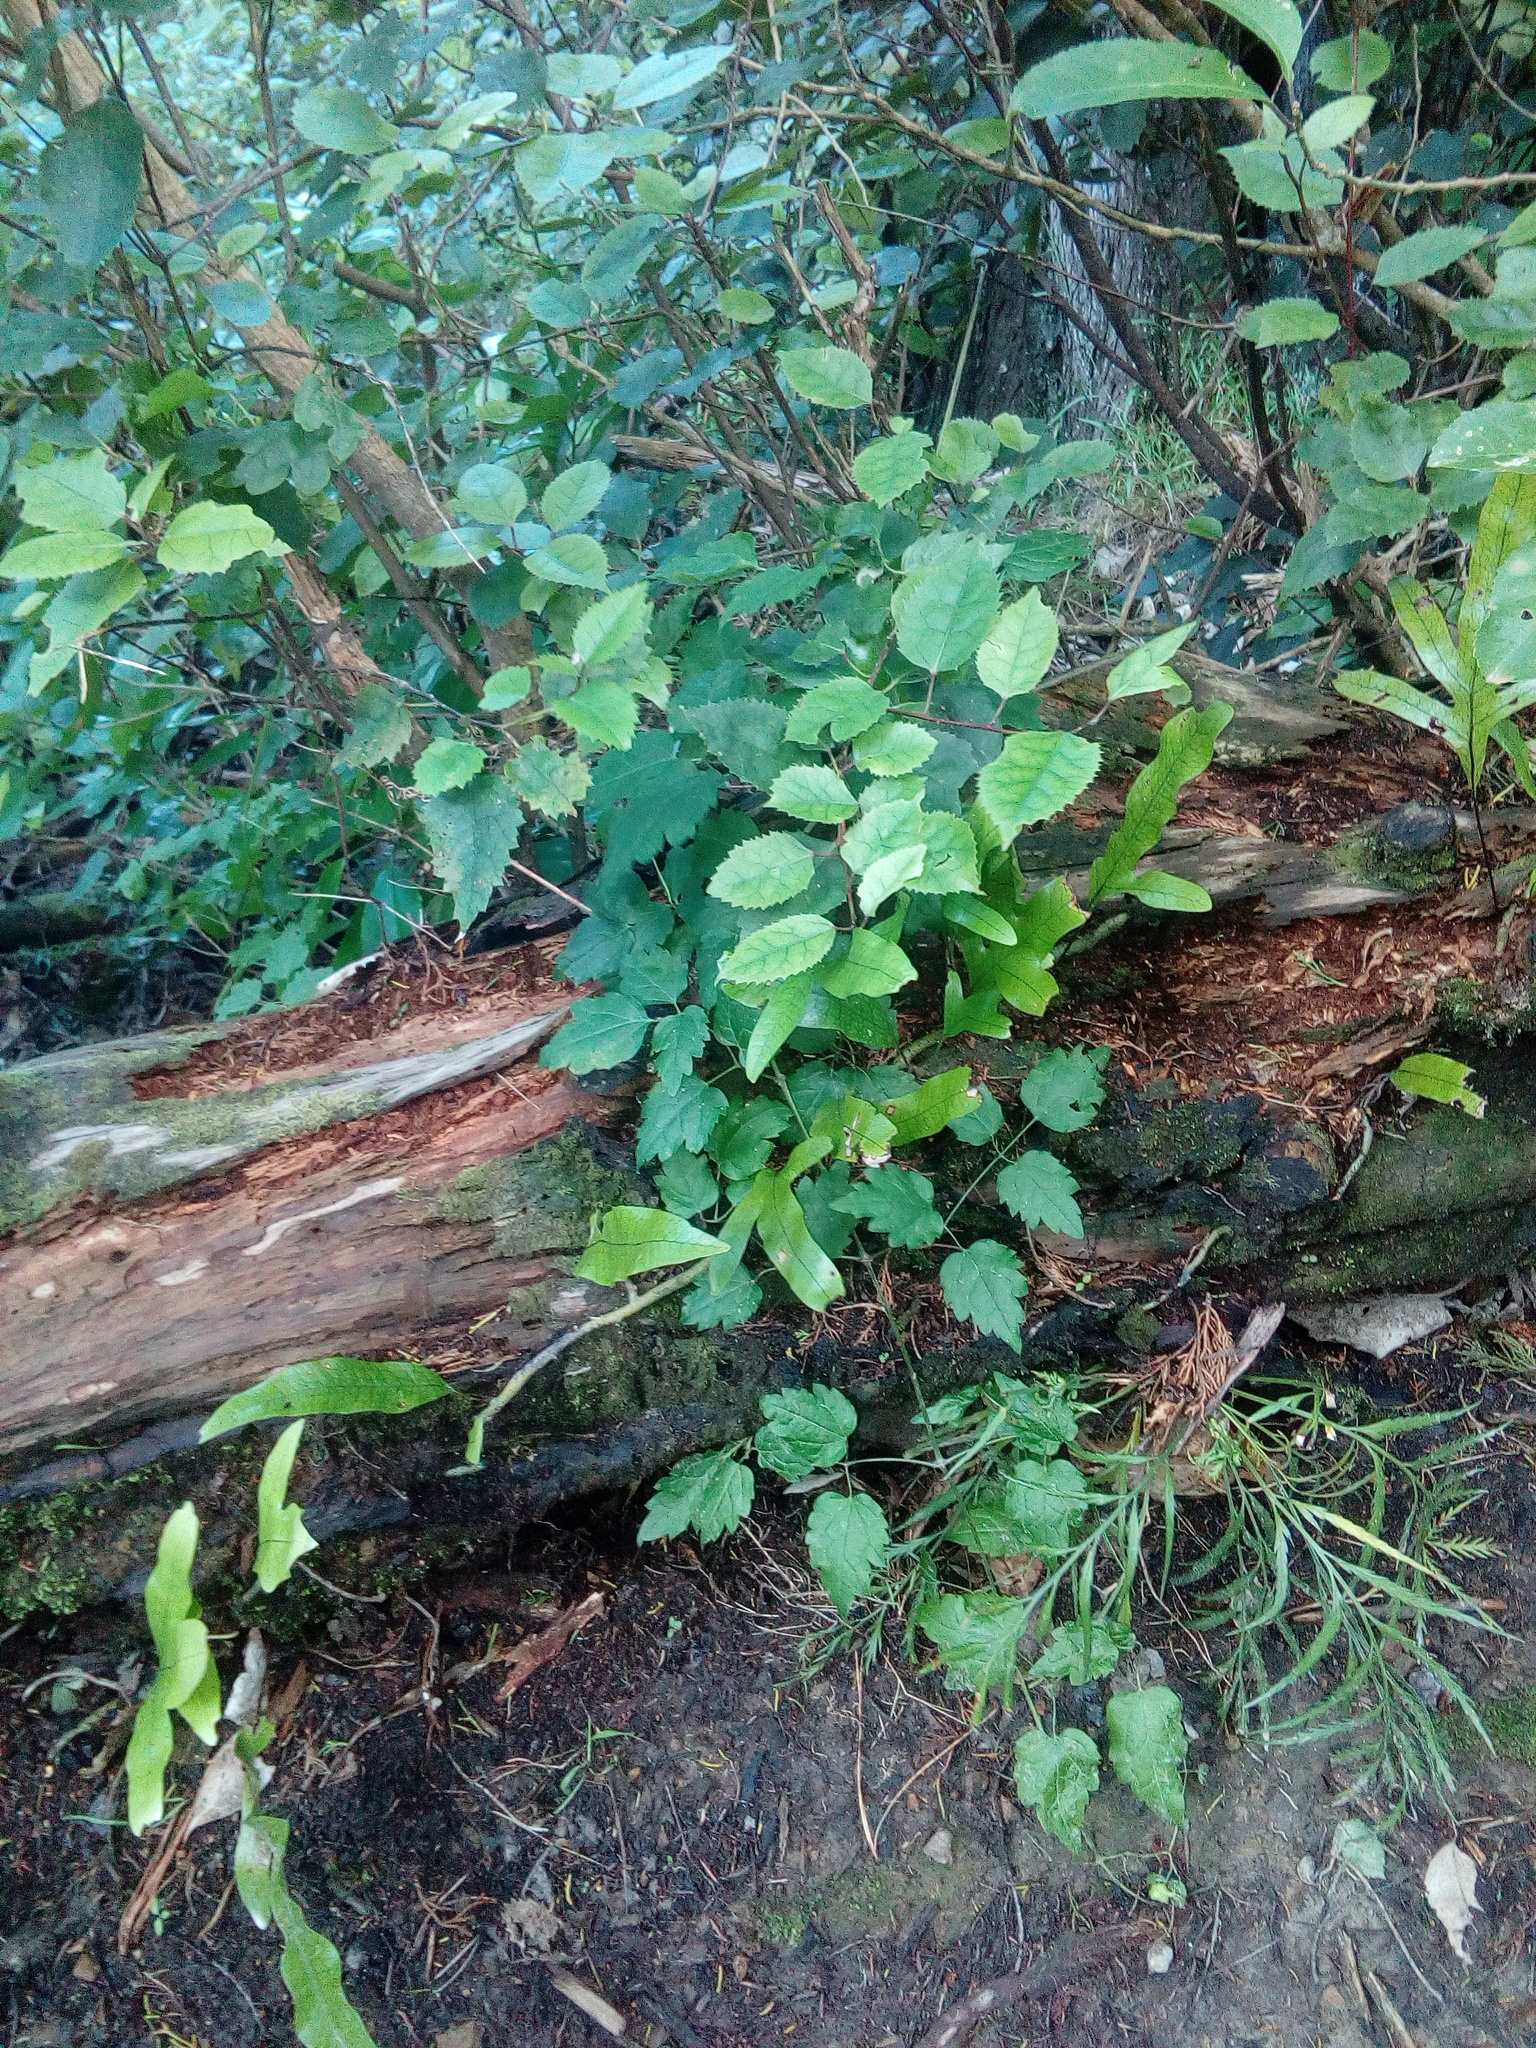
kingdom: Plantae
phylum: Tracheophyta
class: Magnoliopsida
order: Ranunculales
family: Ranunculaceae
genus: Clematis
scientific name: Clematis vitalba
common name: Evergreen clematis
